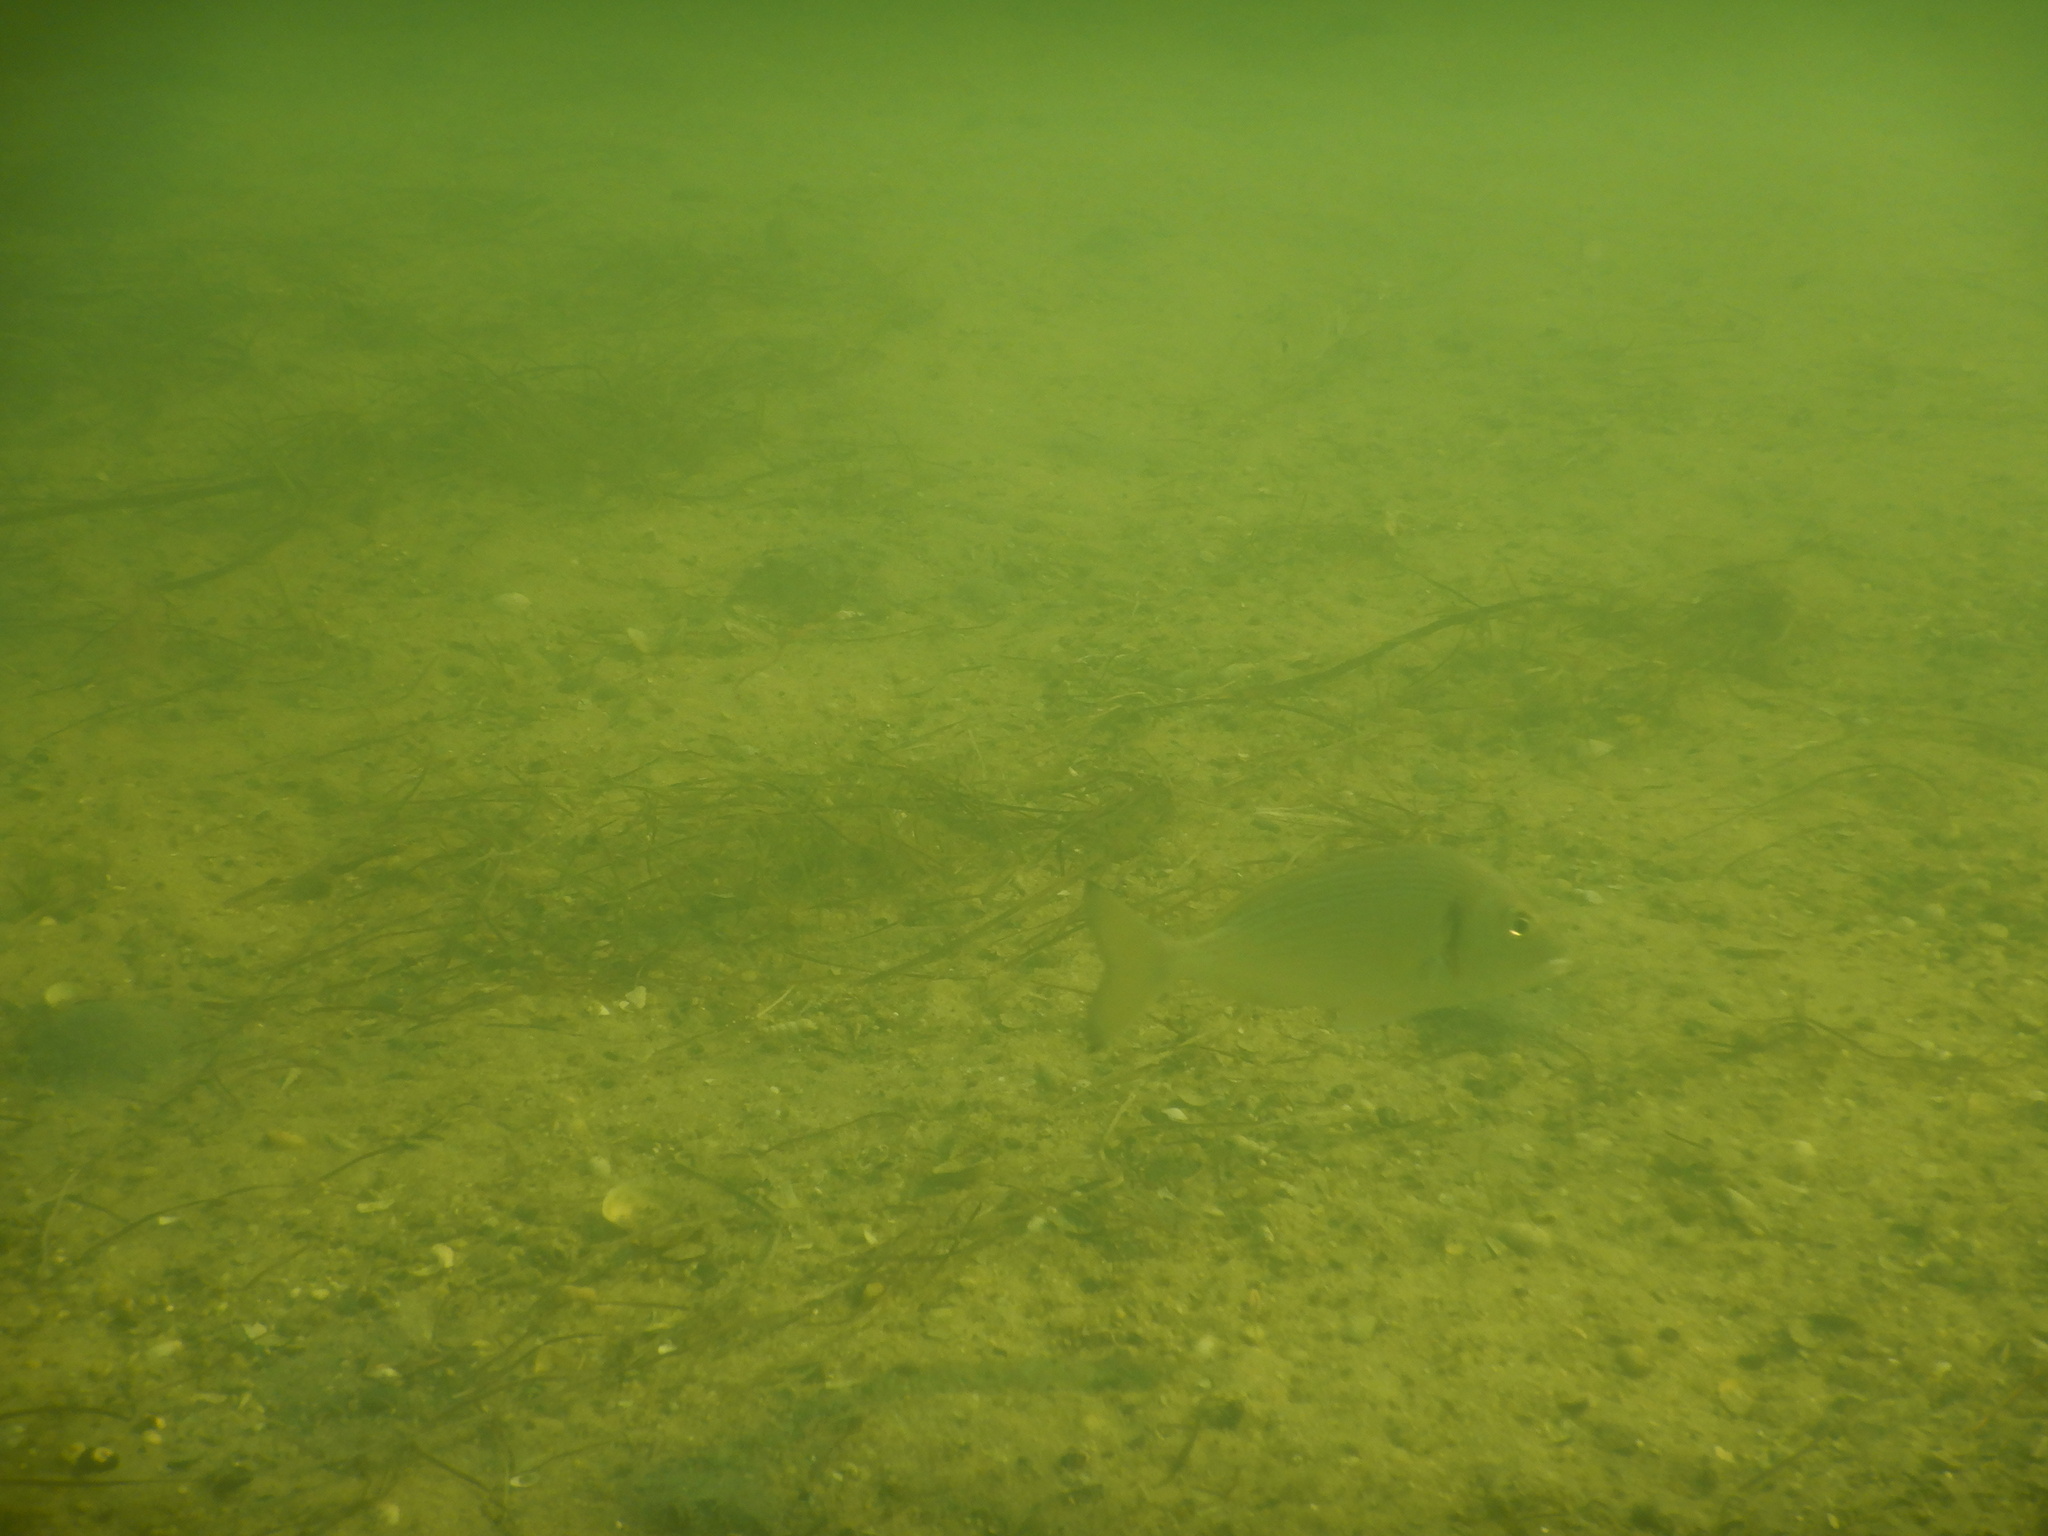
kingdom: Animalia
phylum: Chordata
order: Perciformes
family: Sparidae
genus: Sparus
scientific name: Sparus aurata
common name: Gilthead
